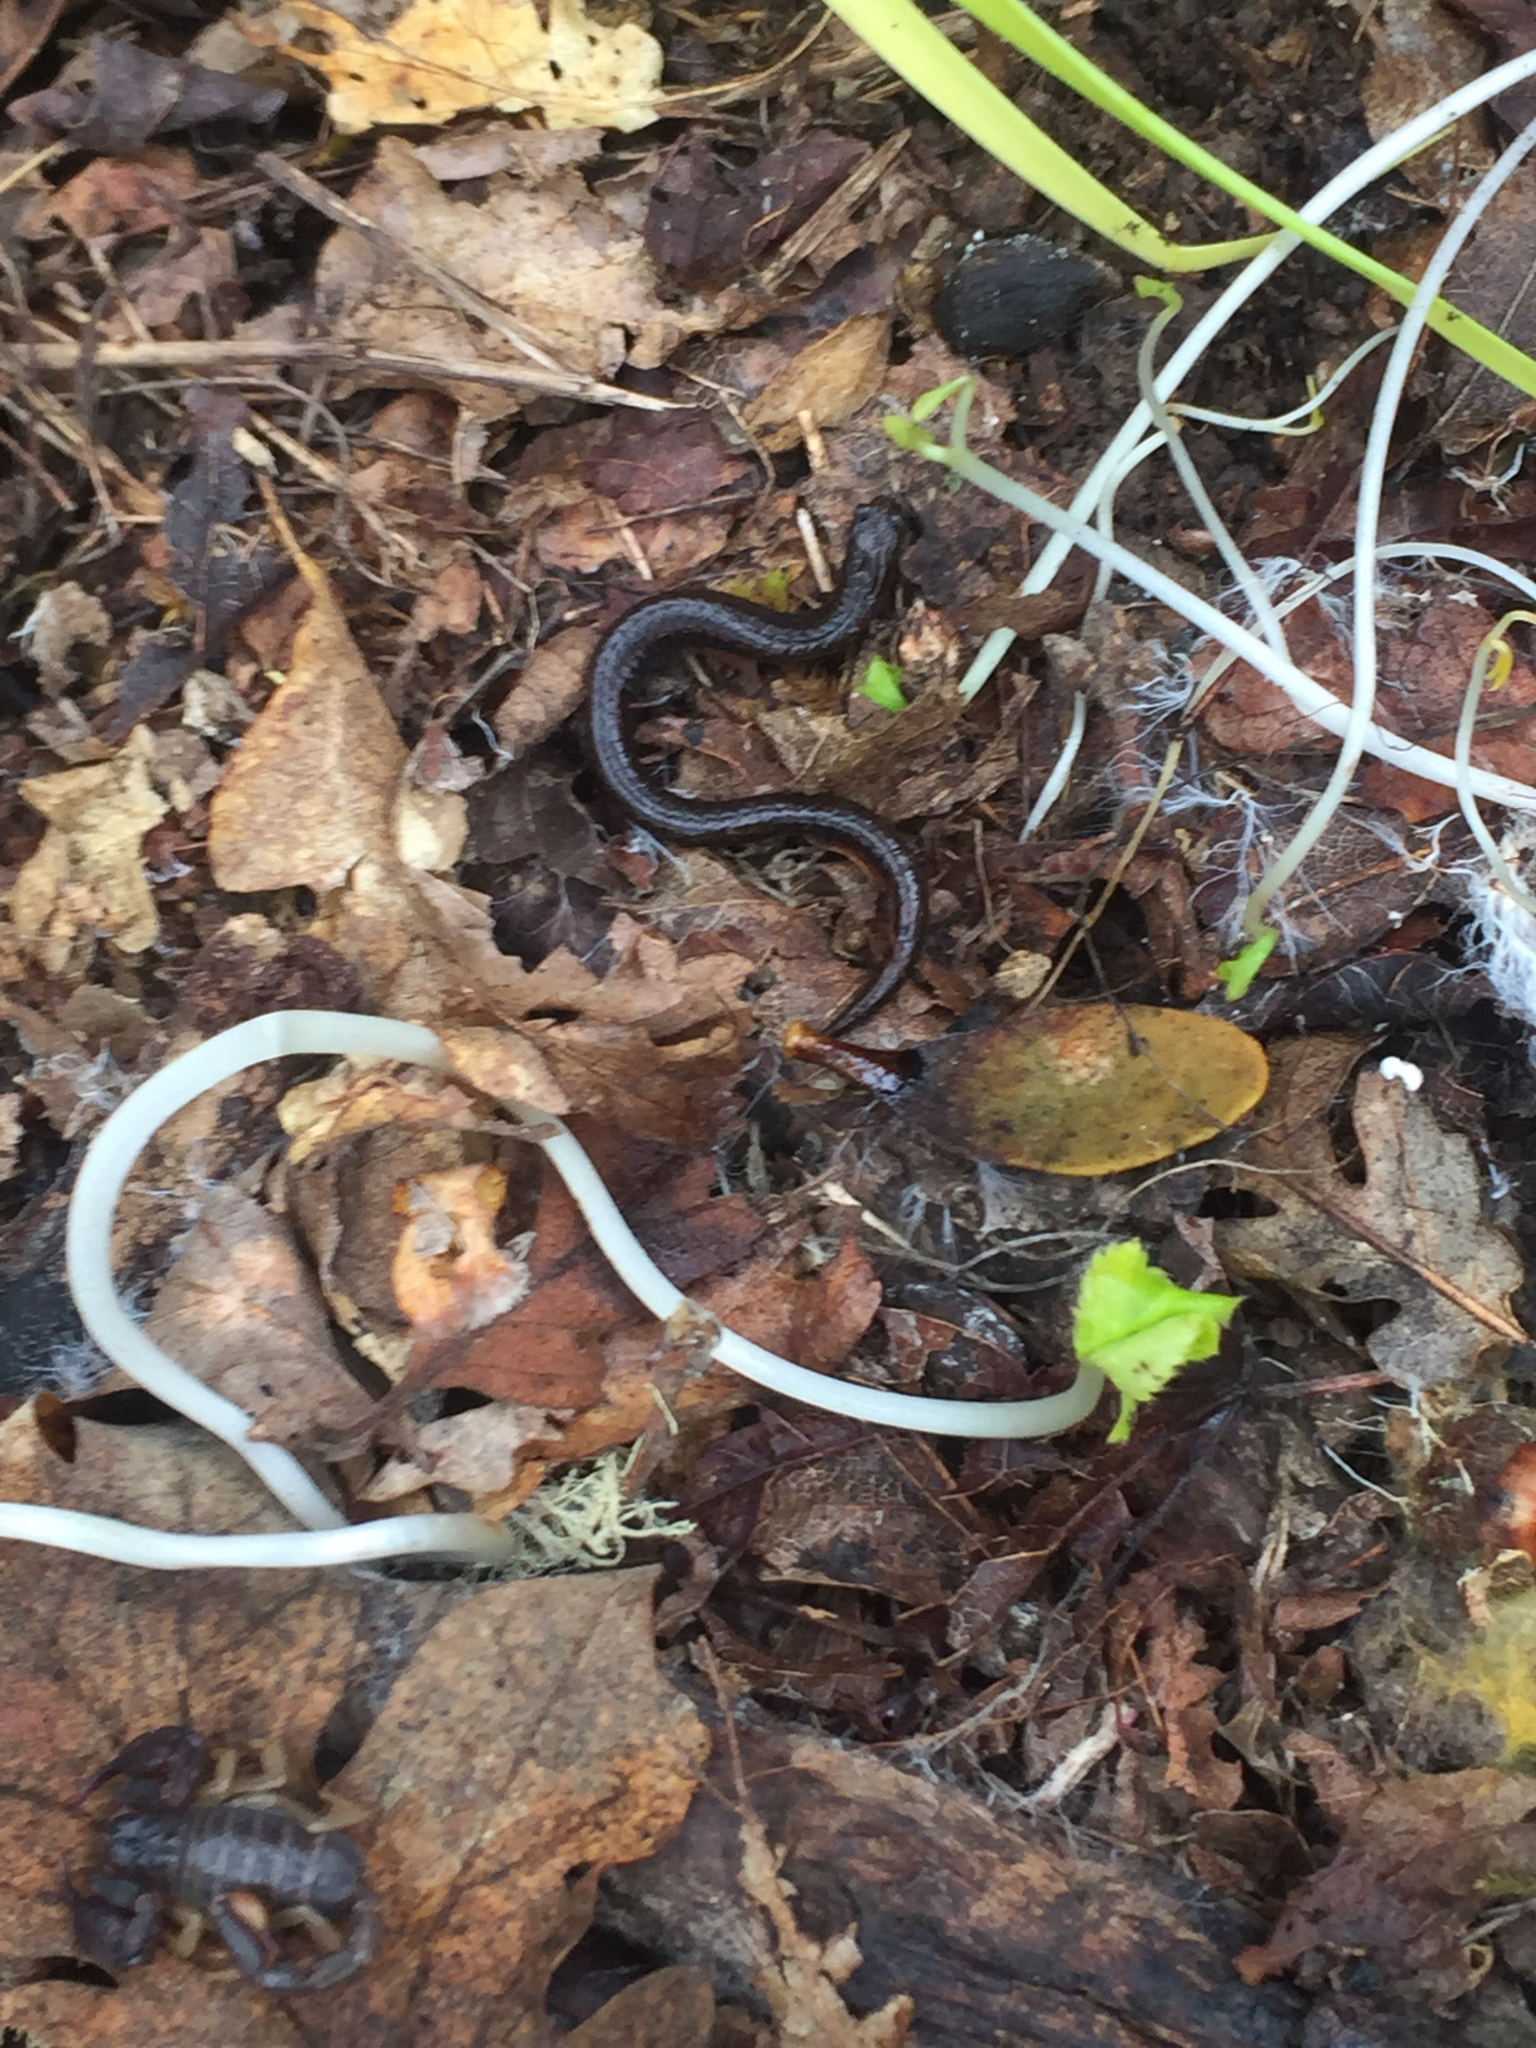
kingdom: Animalia
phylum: Chordata
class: Amphibia
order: Caudata
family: Plethodontidae
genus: Batrachoseps
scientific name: Batrachoseps attenuatus
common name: California slender salamander
